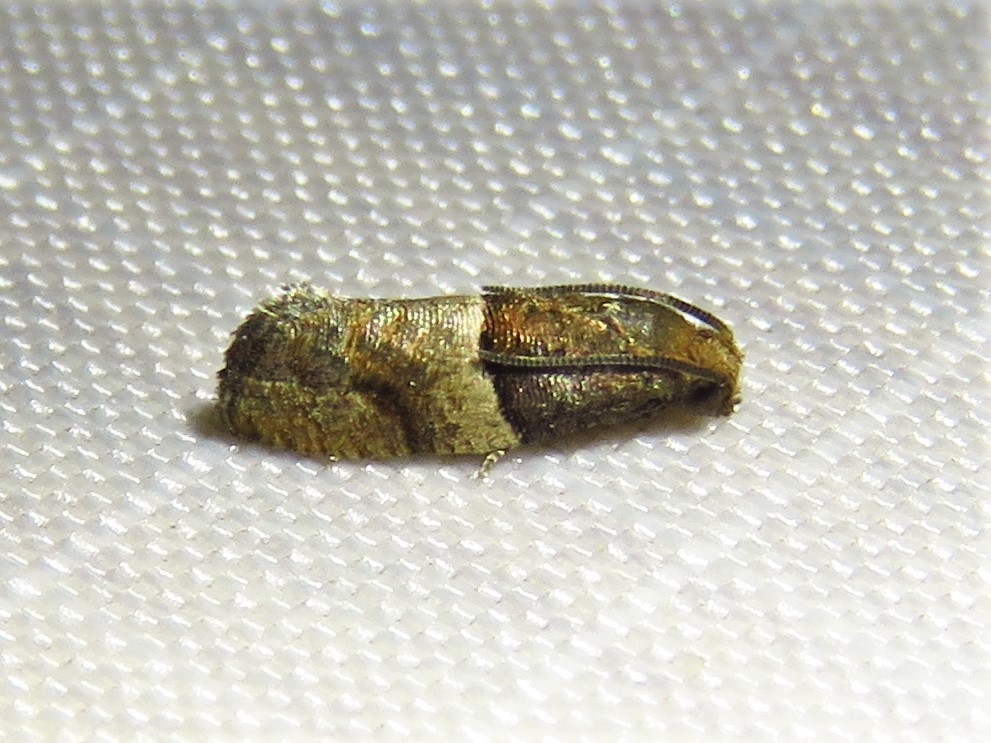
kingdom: Animalia
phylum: Arthropoda
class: Insecta
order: Lepidoptera
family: Tortricidae
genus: Larisa
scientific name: Larisa subsolana
